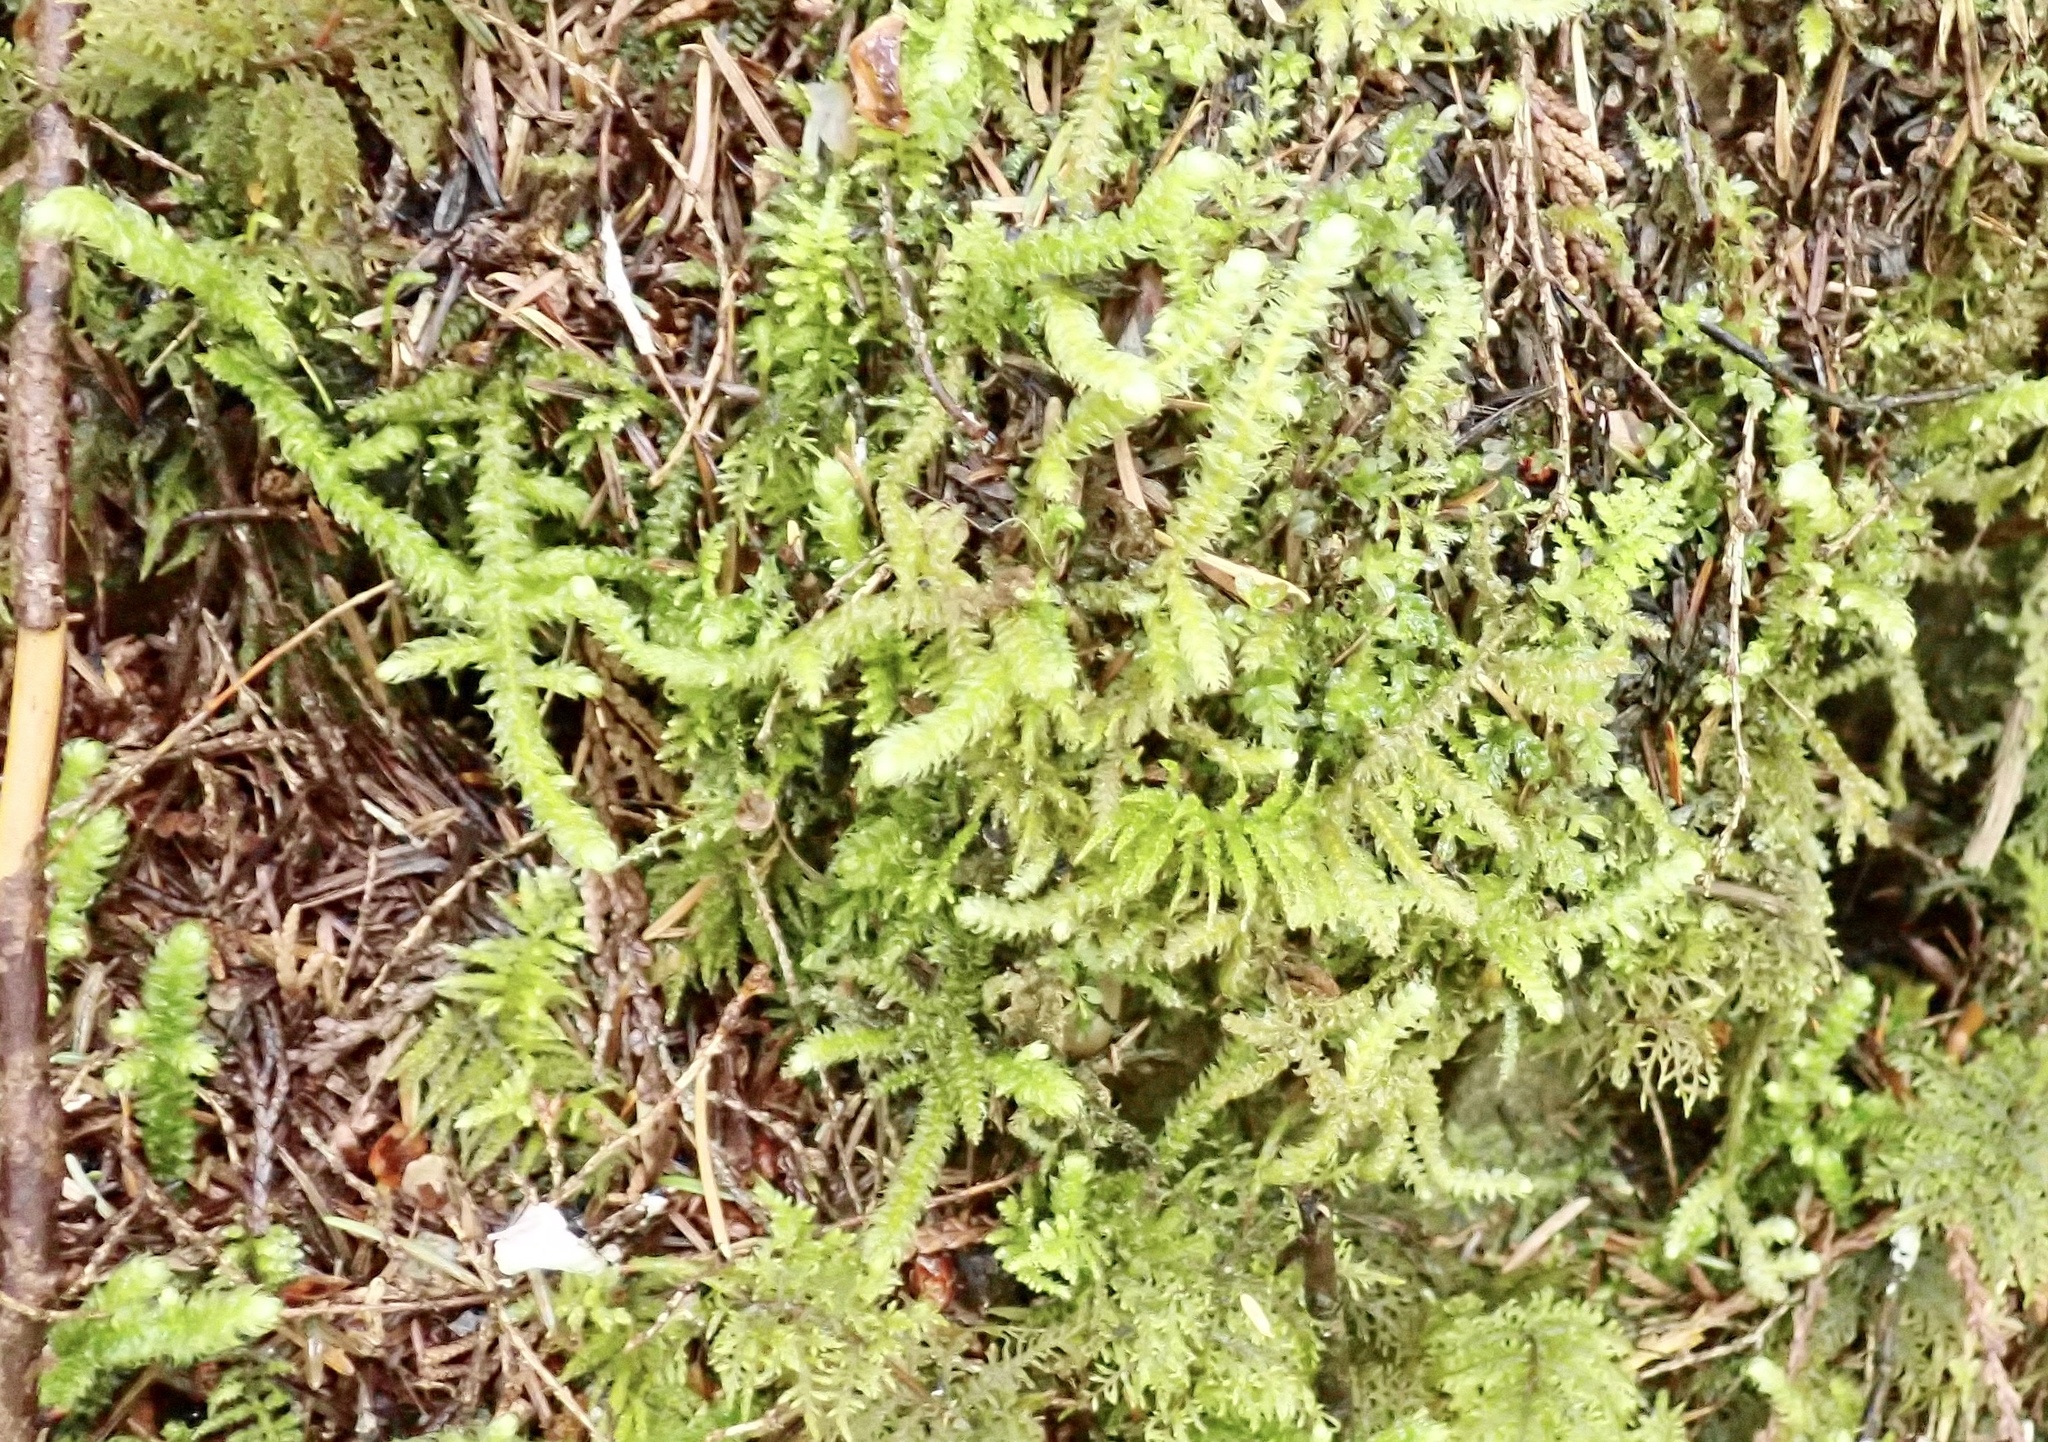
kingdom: Plantae
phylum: Bryophyta
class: Bryopsida
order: Hypnales
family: Hylocomiaceae
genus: Rhytidiopsis
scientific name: Rhytidiopsis robusta
